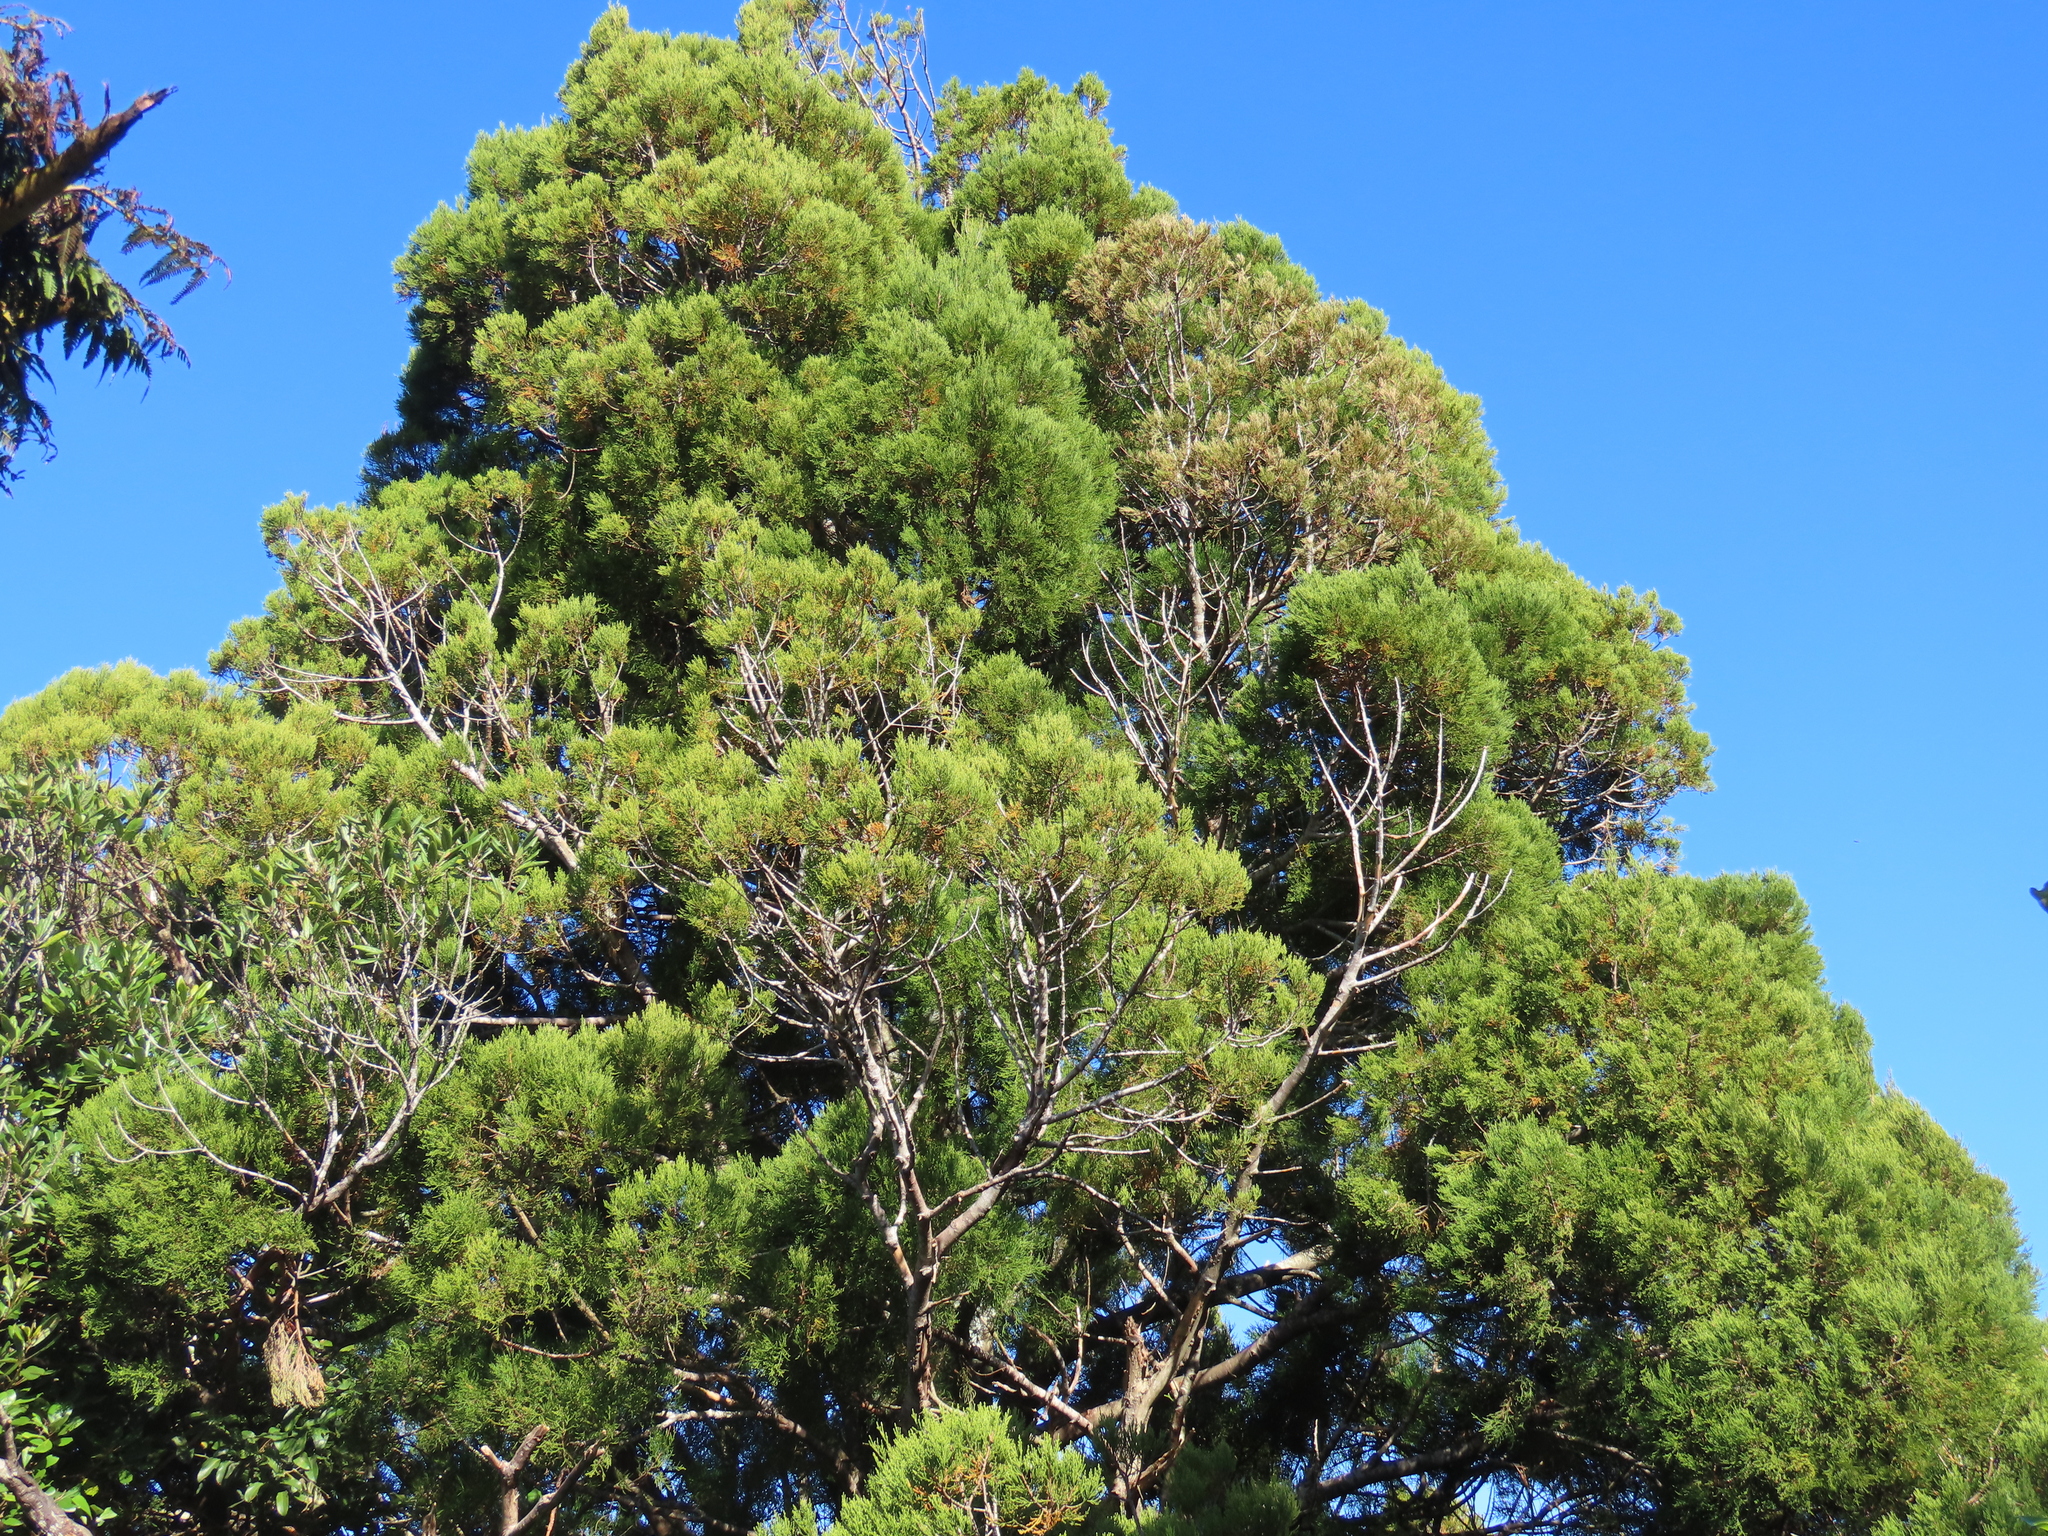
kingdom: Plantae
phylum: Tracheophyta
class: Pinopsida
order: Pinales
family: Podocarpaceae
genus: Dacrycarpus
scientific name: Dacrycarpus dacrydioides
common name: White pine
